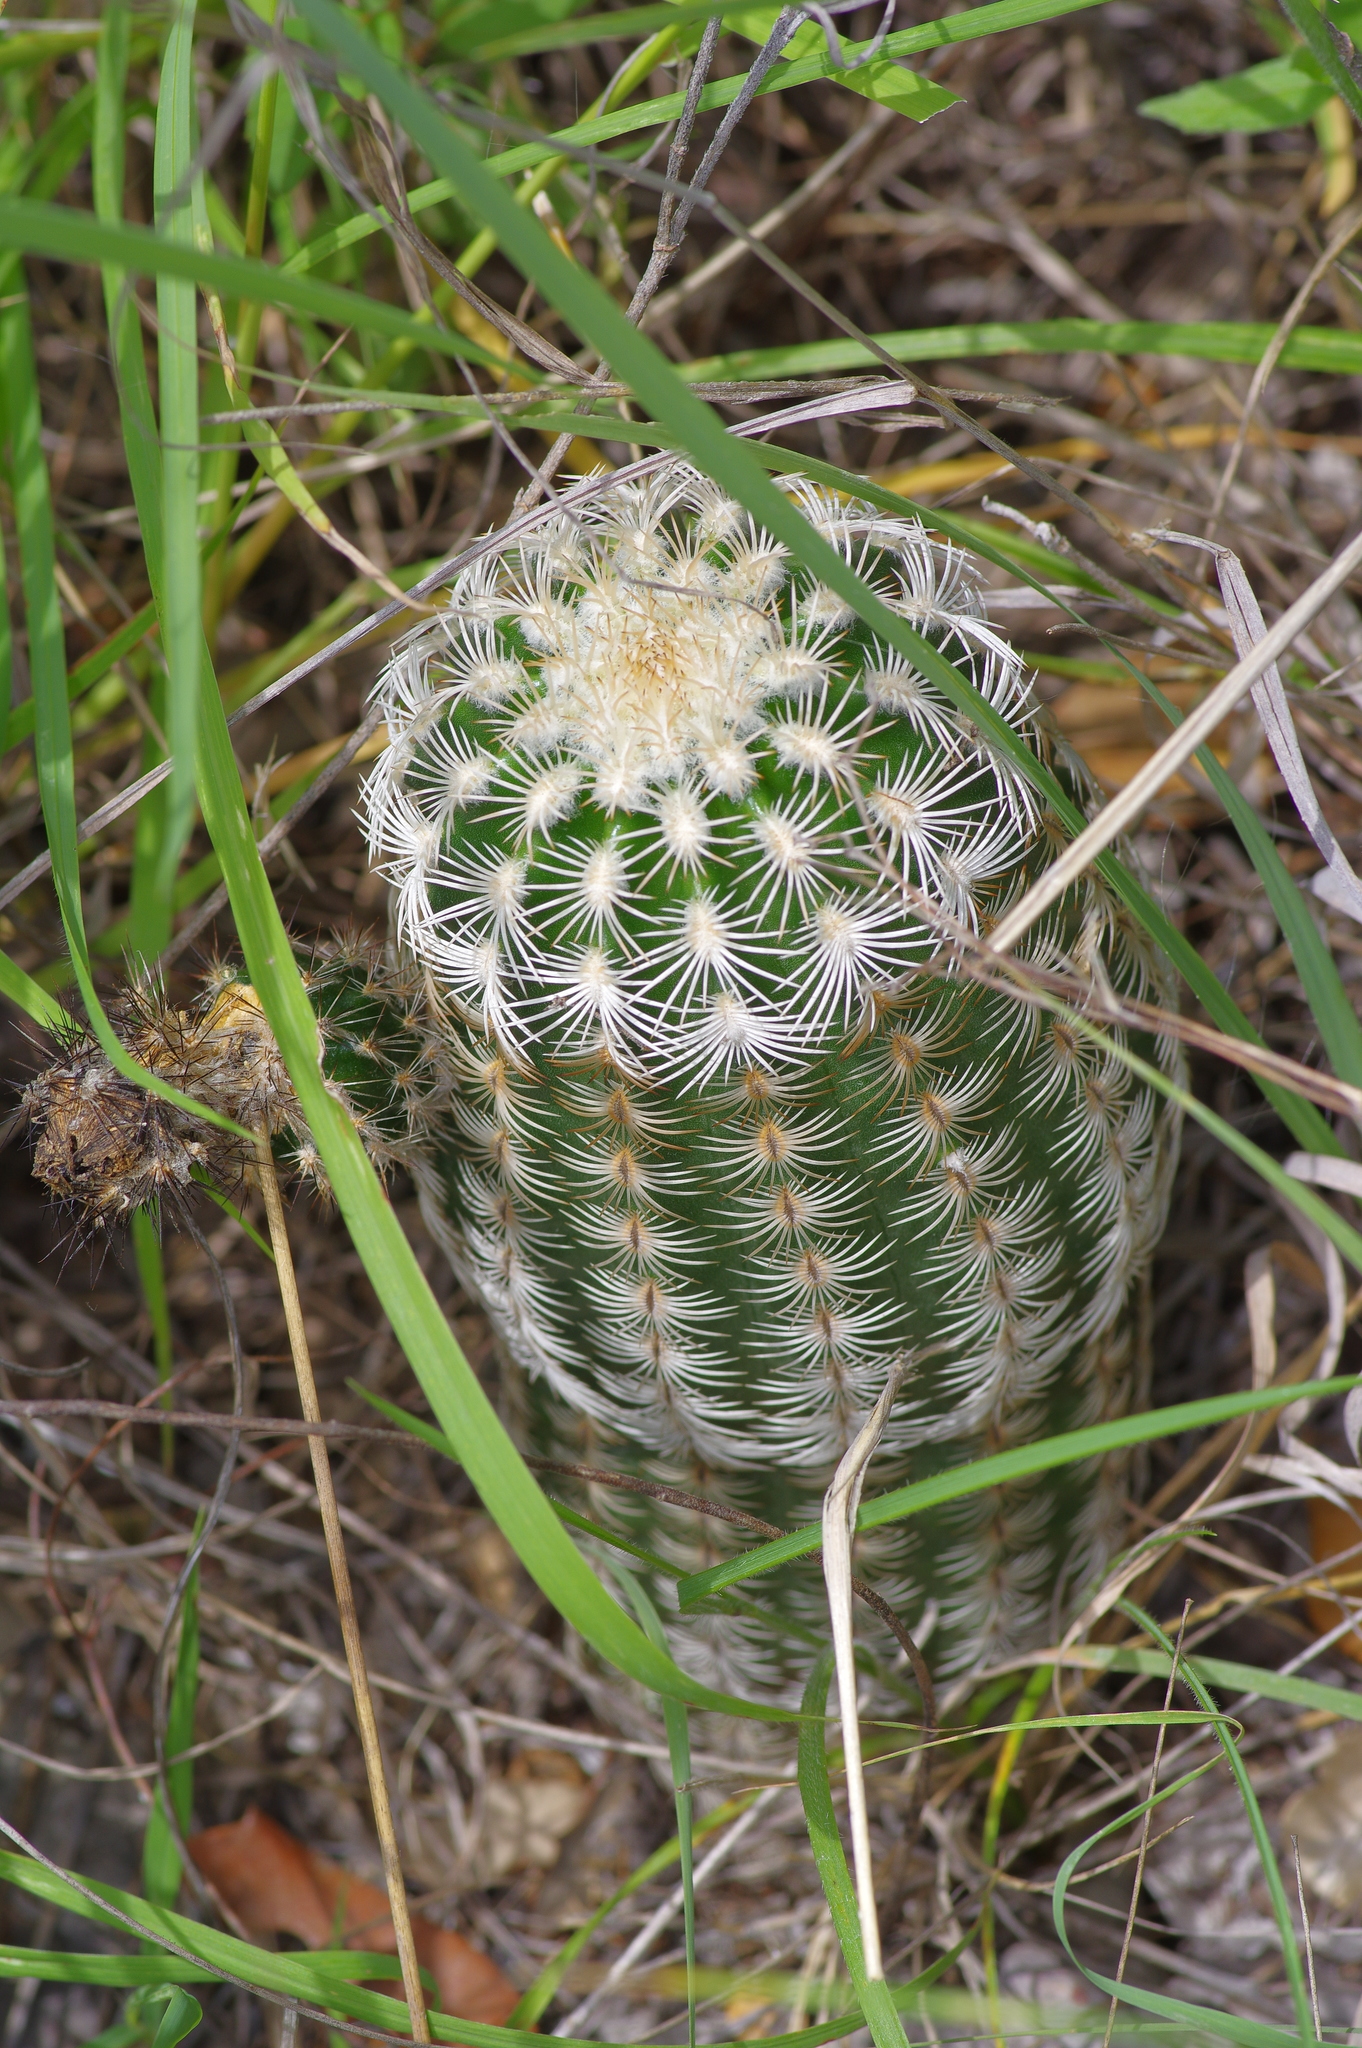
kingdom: Plantae
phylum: Tracheophyta
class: Magnoliopsida
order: Caryophyllales
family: Cactaceae
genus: Echinocereus
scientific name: Echinocereus reichenbachii
